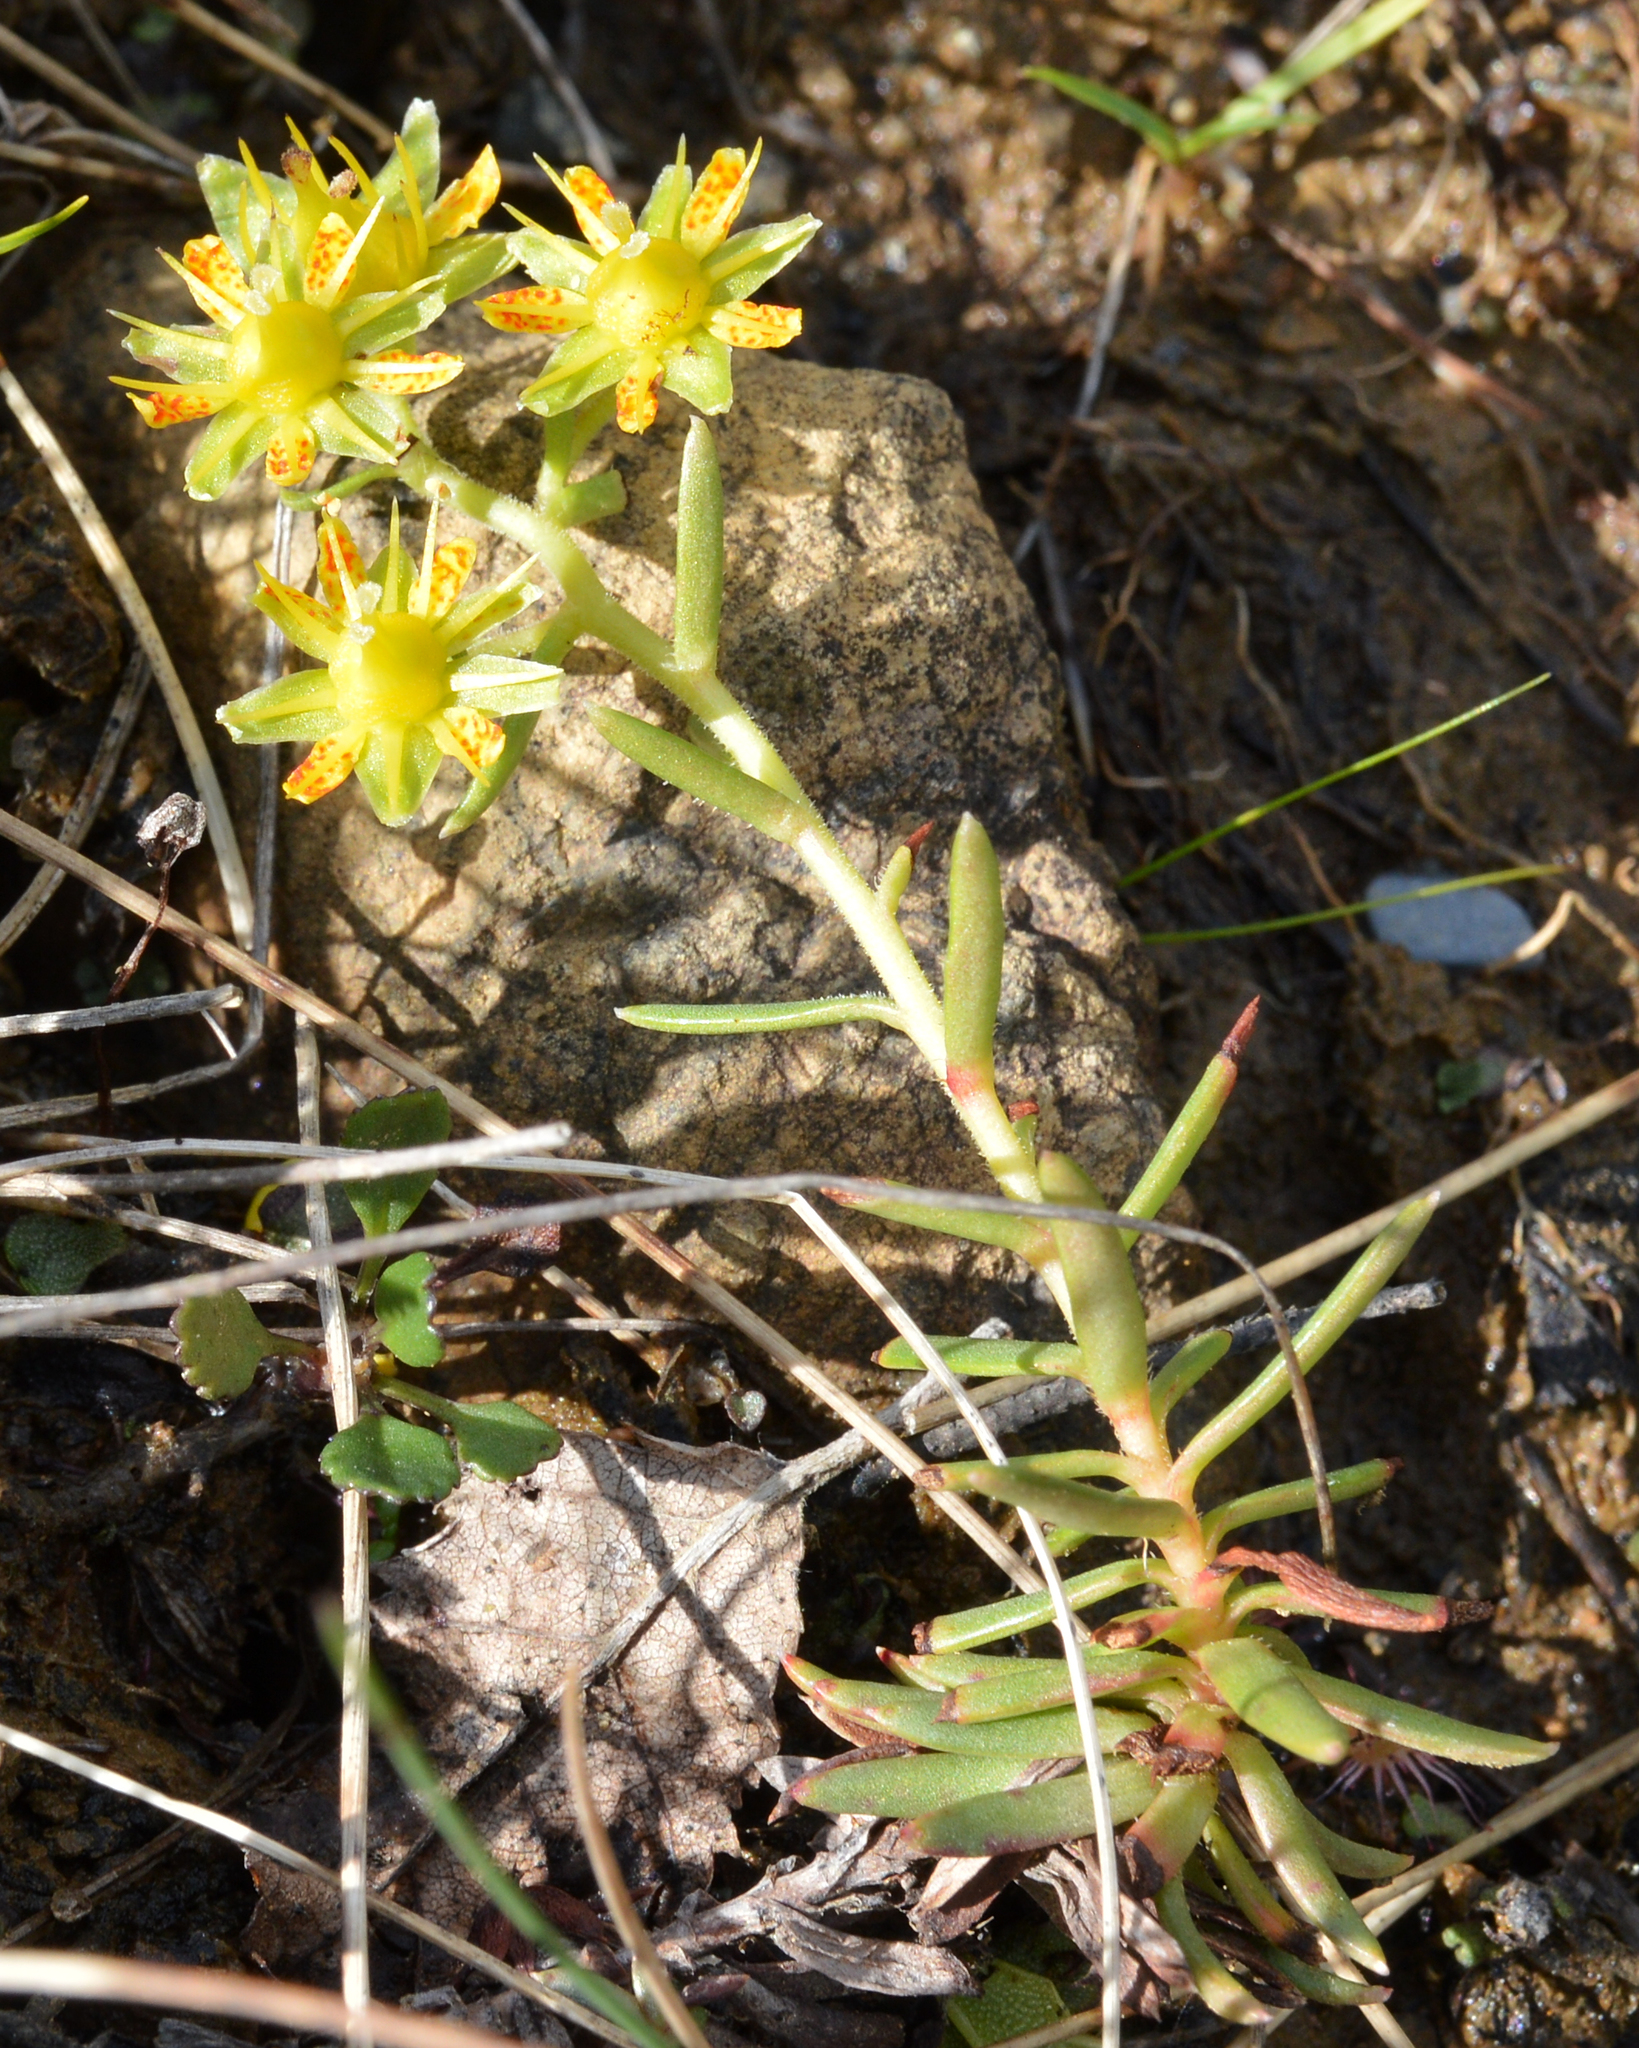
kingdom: Plantae
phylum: Tracheophyta
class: Magnoliopsida
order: Saxifragales
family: Saxifragaceae
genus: Saxifraga
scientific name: Saxifraga aizoides
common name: Yellow mountain saxifrage
